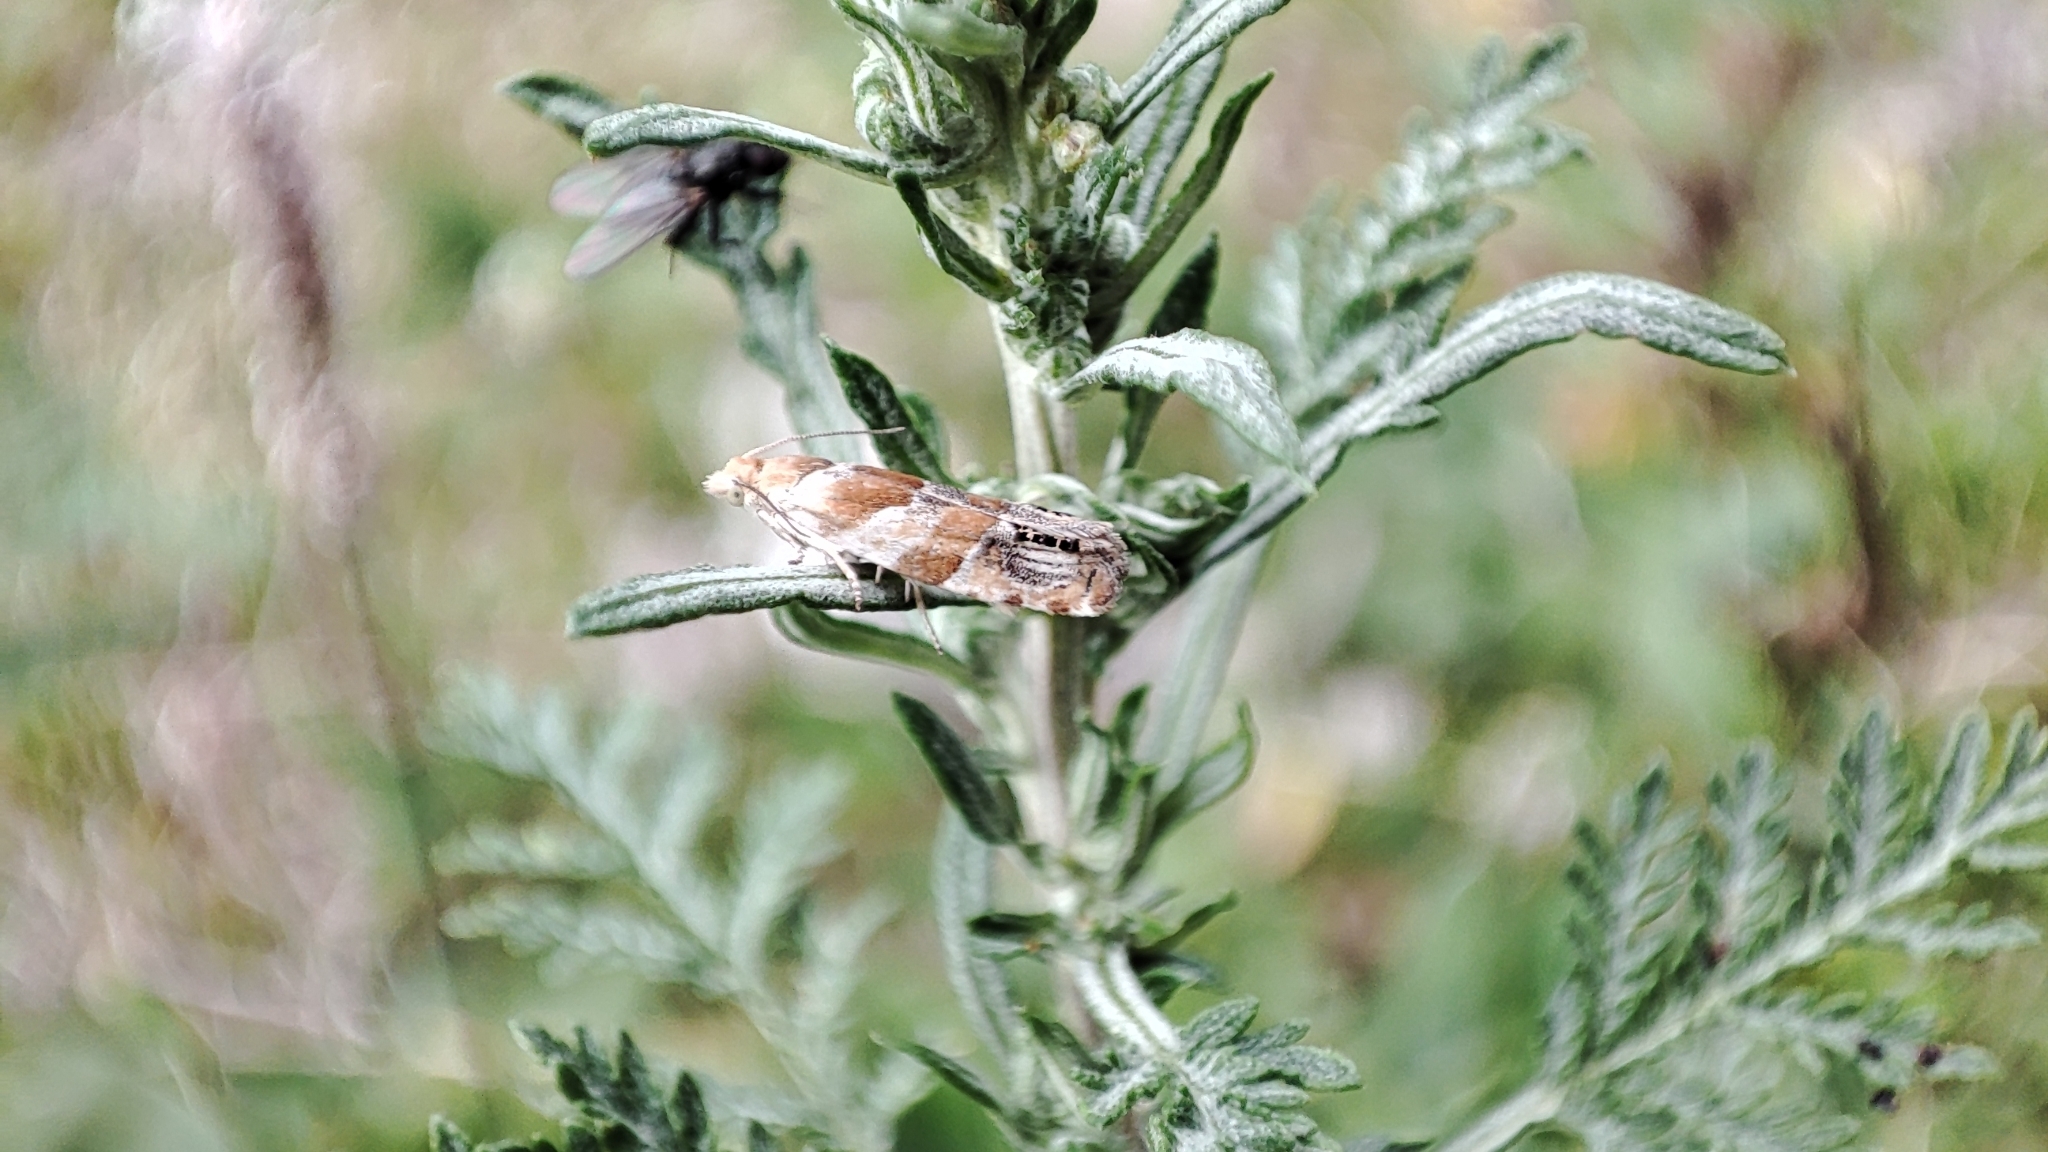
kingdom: Animalia
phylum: Arthropoda
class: Insecta
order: Lepidoptera
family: Tortricidae
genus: Eucosma
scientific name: Eucosma abacana
